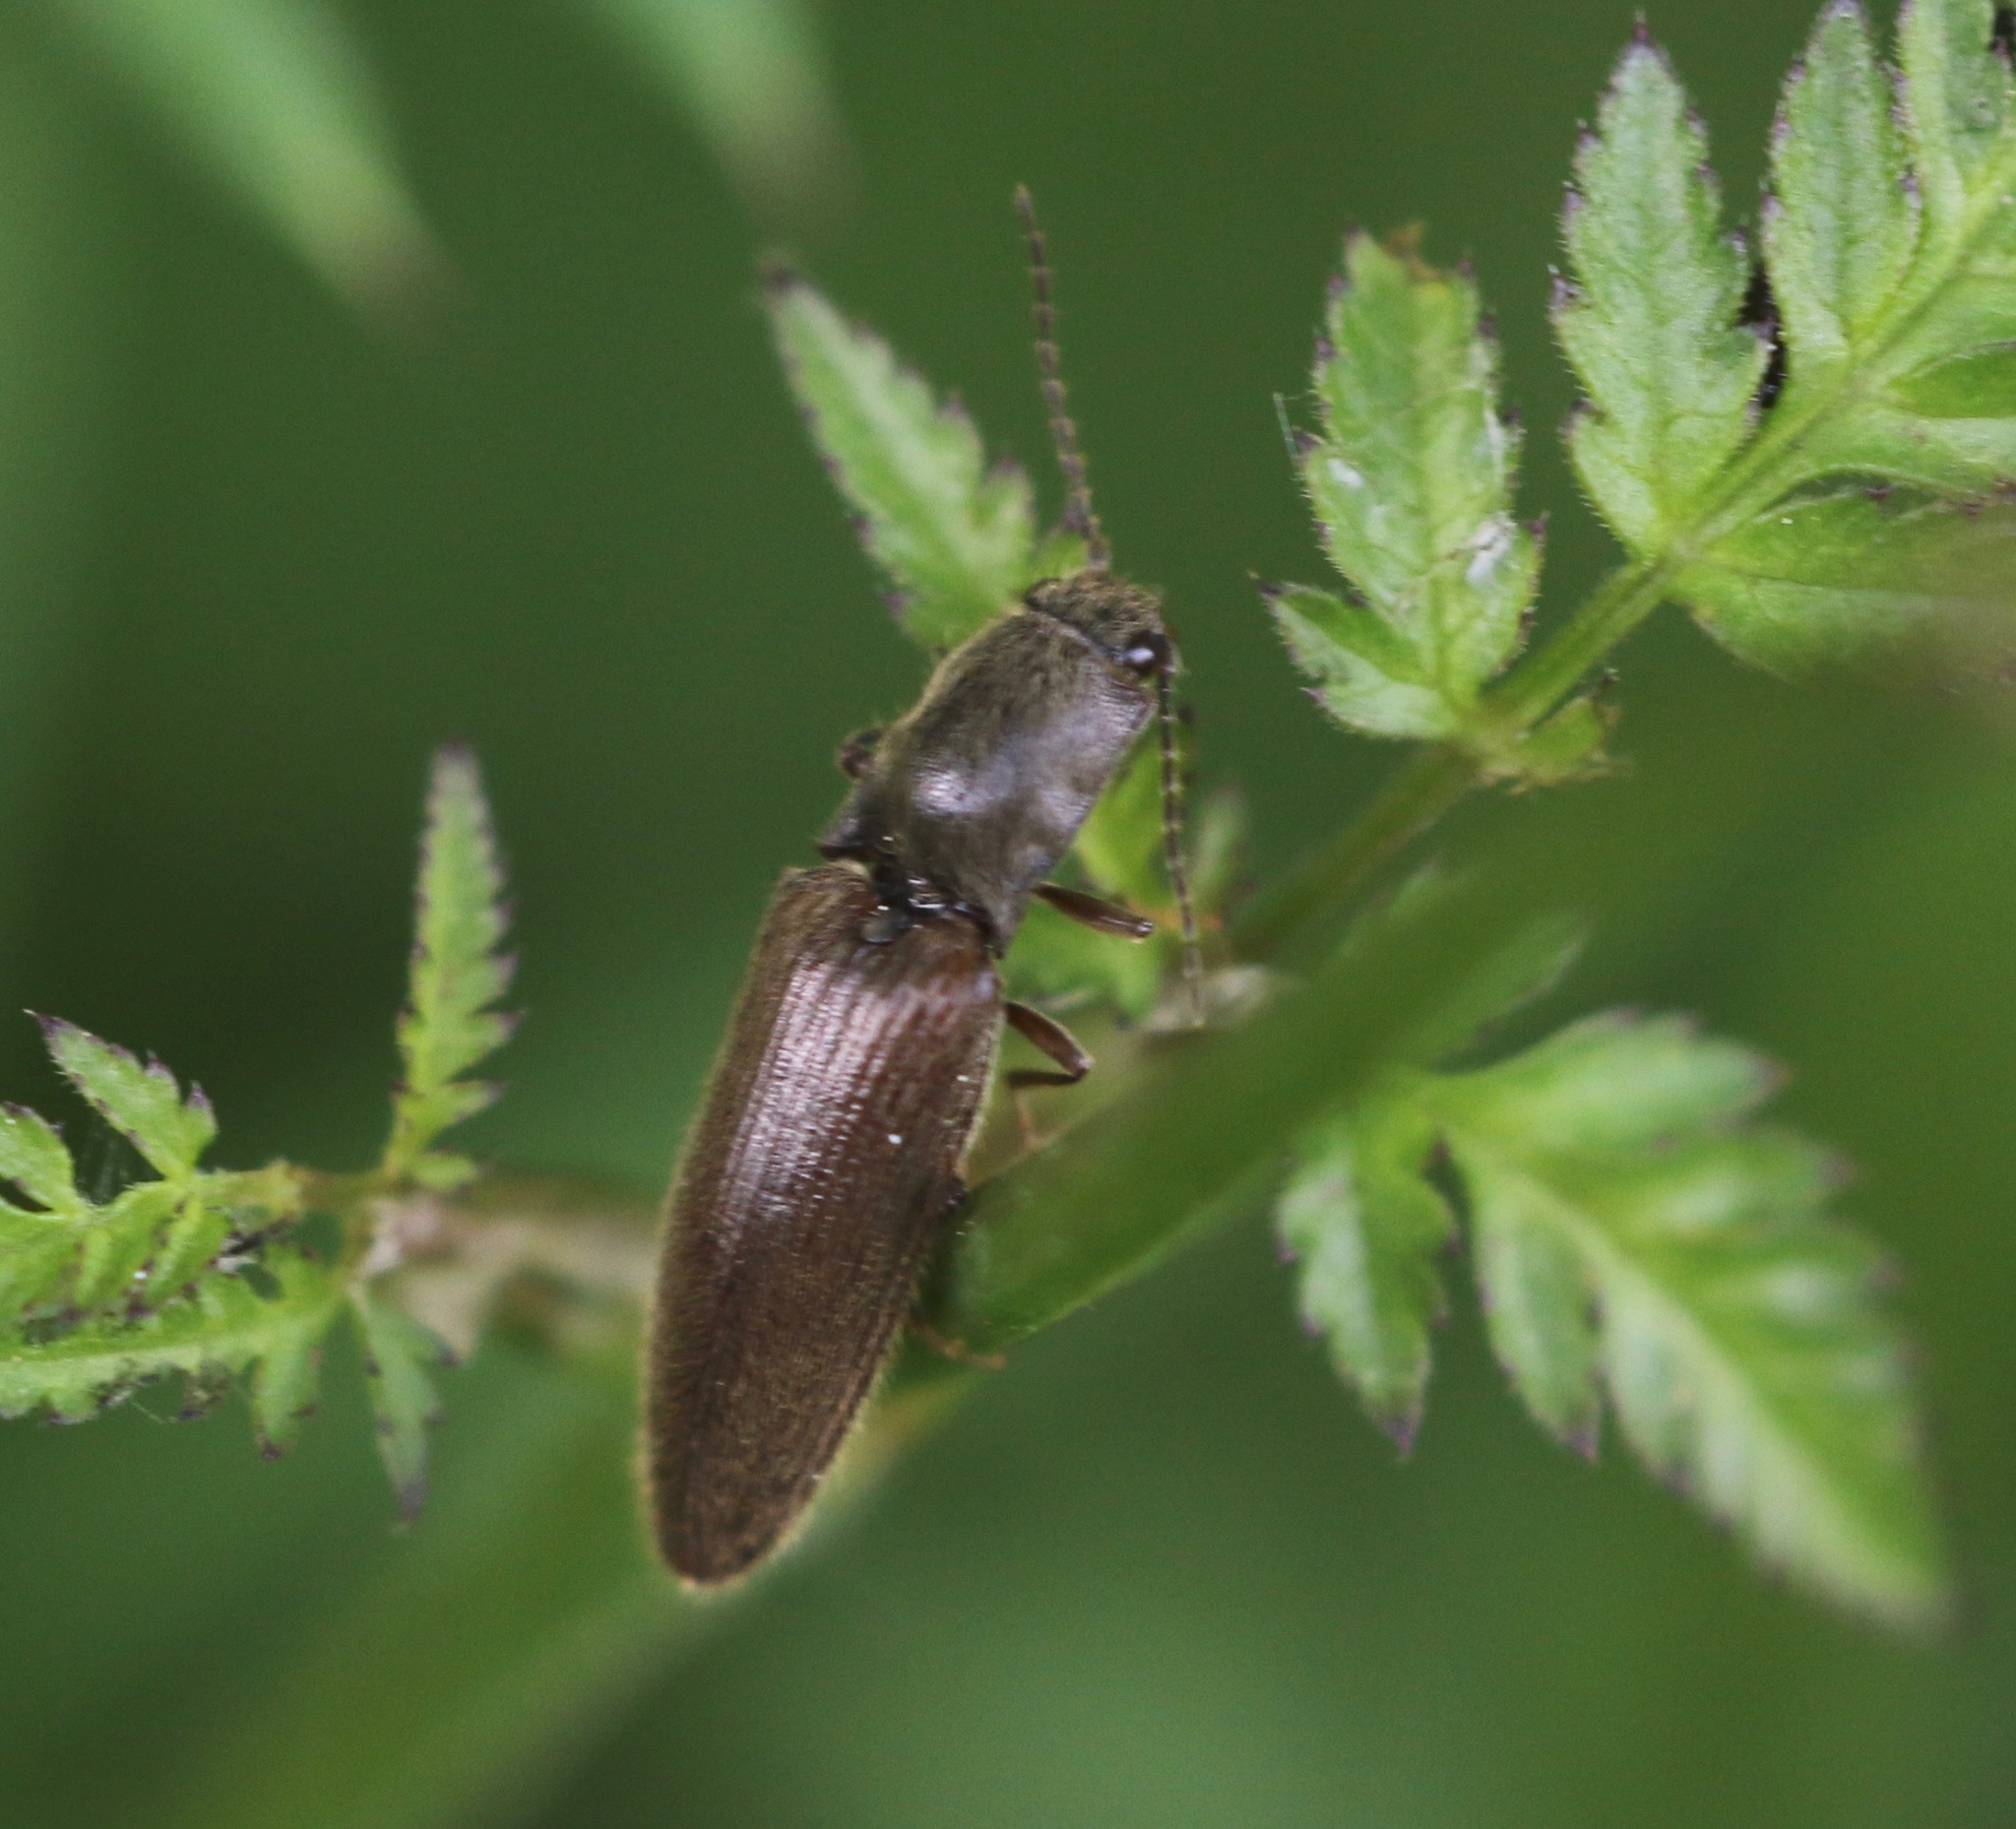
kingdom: Animalia
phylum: Arthropoda
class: Insecta
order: Coleoptera
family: Elateridae
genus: Athous
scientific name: Athous haemorrhoidalis
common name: Red-brown click beetle
